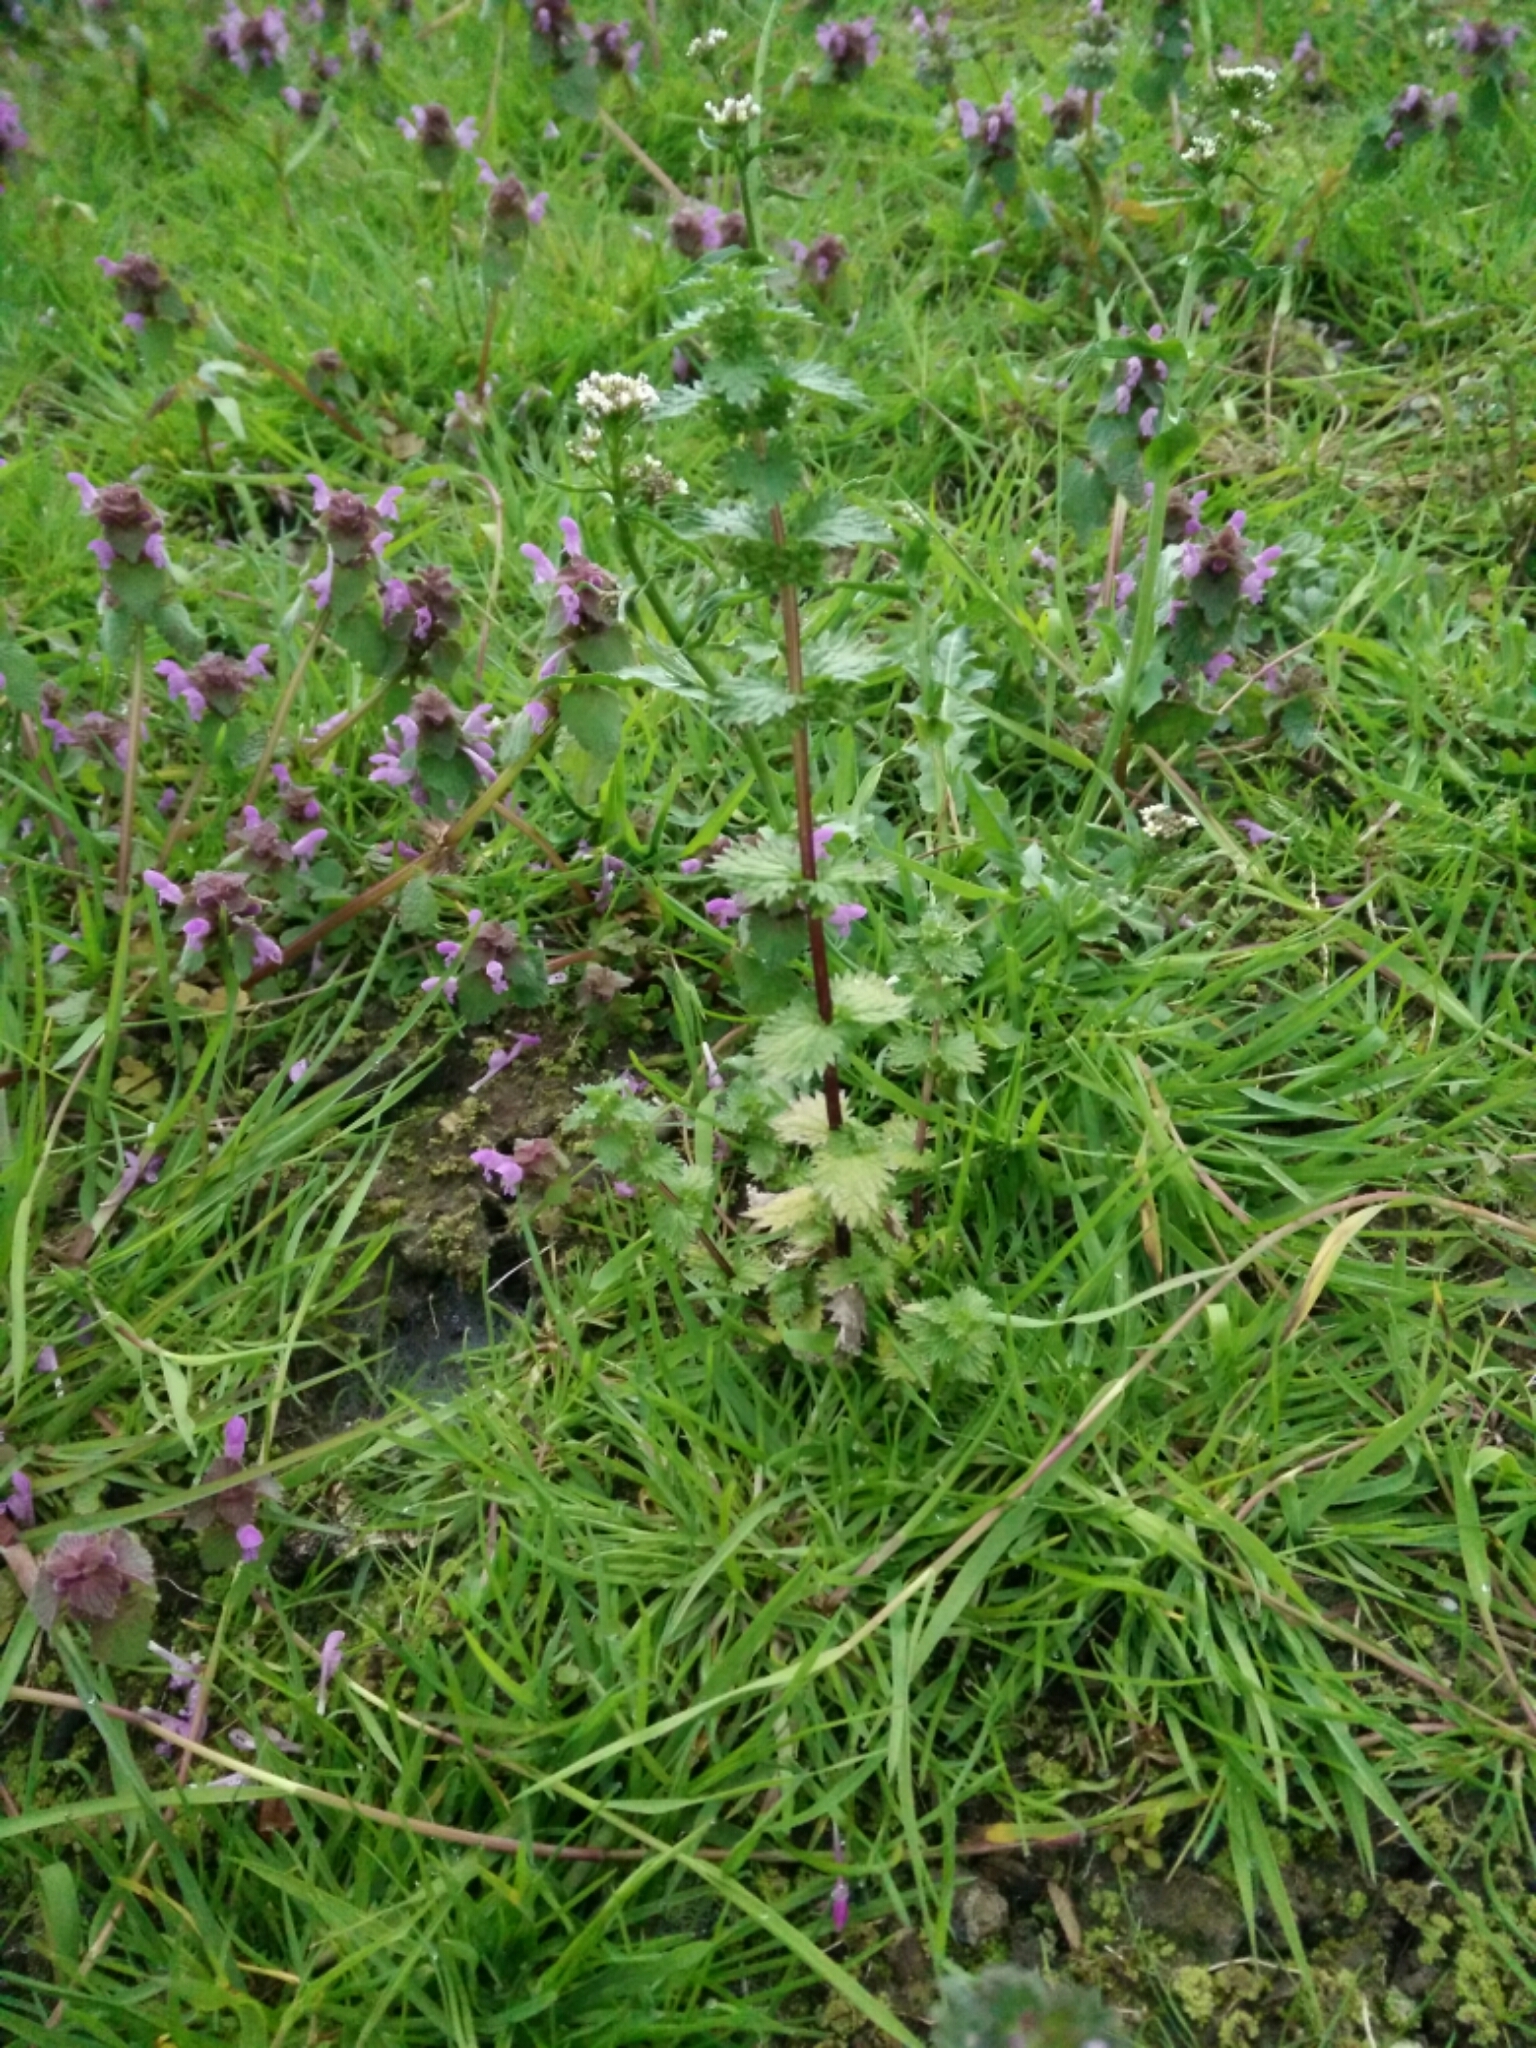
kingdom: Plantae
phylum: Tracheophyta
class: Magnoliopsida
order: Rosales
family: Urticaceae
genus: Urtica
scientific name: Urtica urens
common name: Dwarf nettle
